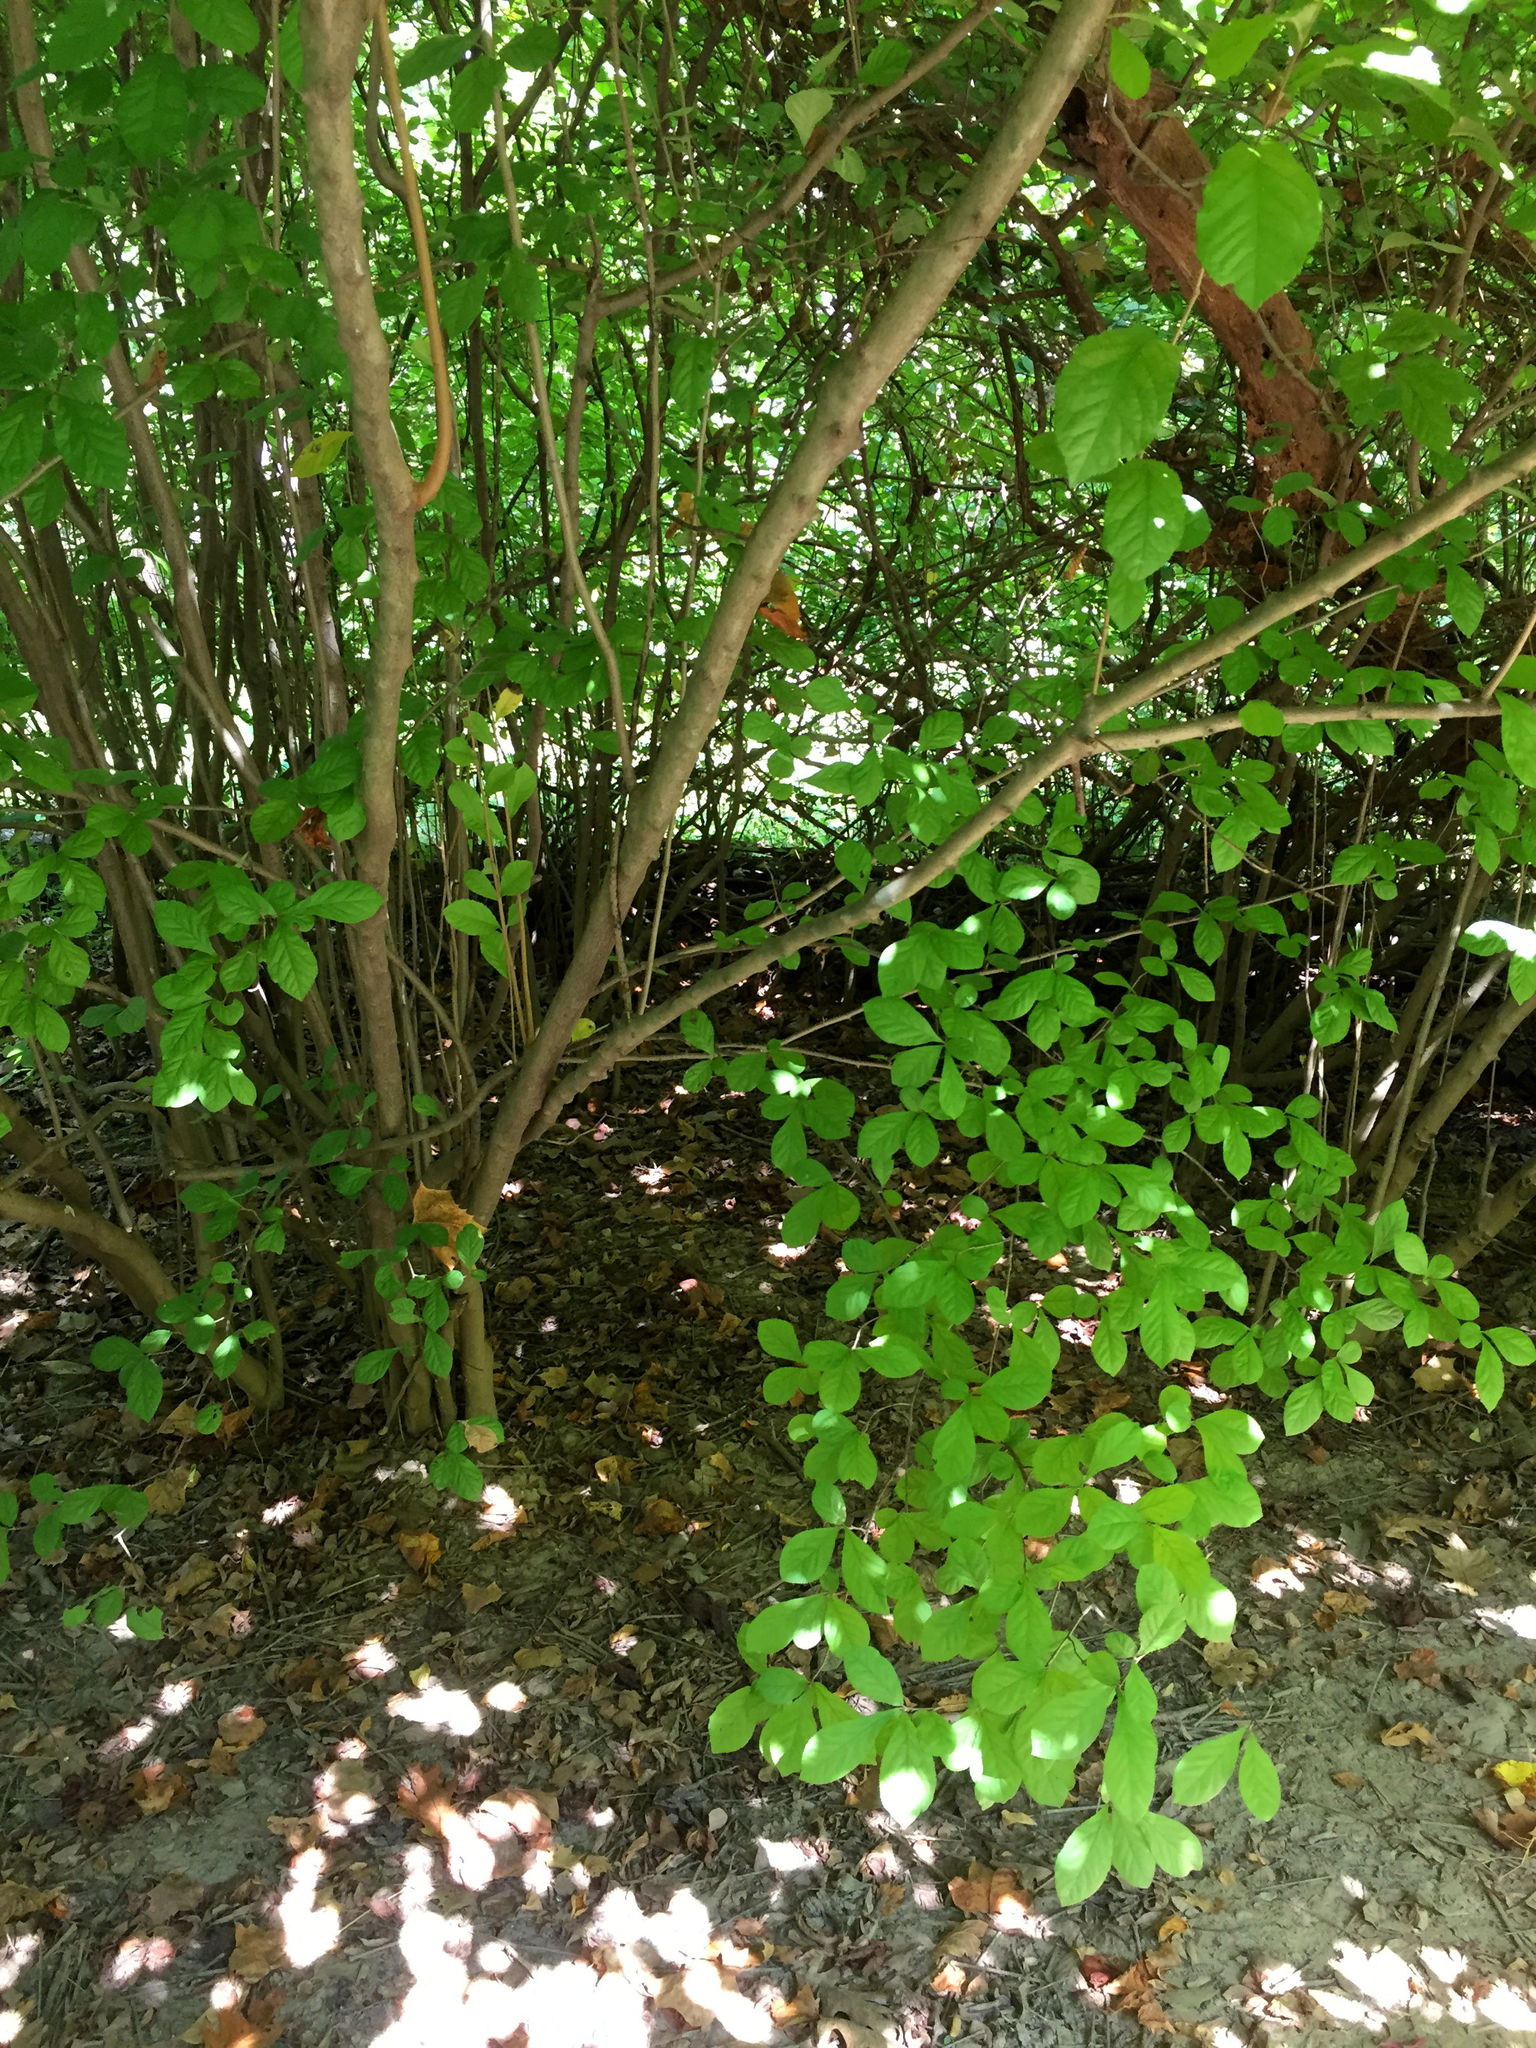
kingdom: Plantae
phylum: Tracheophyta
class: Magnoliopsida
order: Rosales
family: Rosaceae
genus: Pourthiaea
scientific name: Pourthiaea villosa
